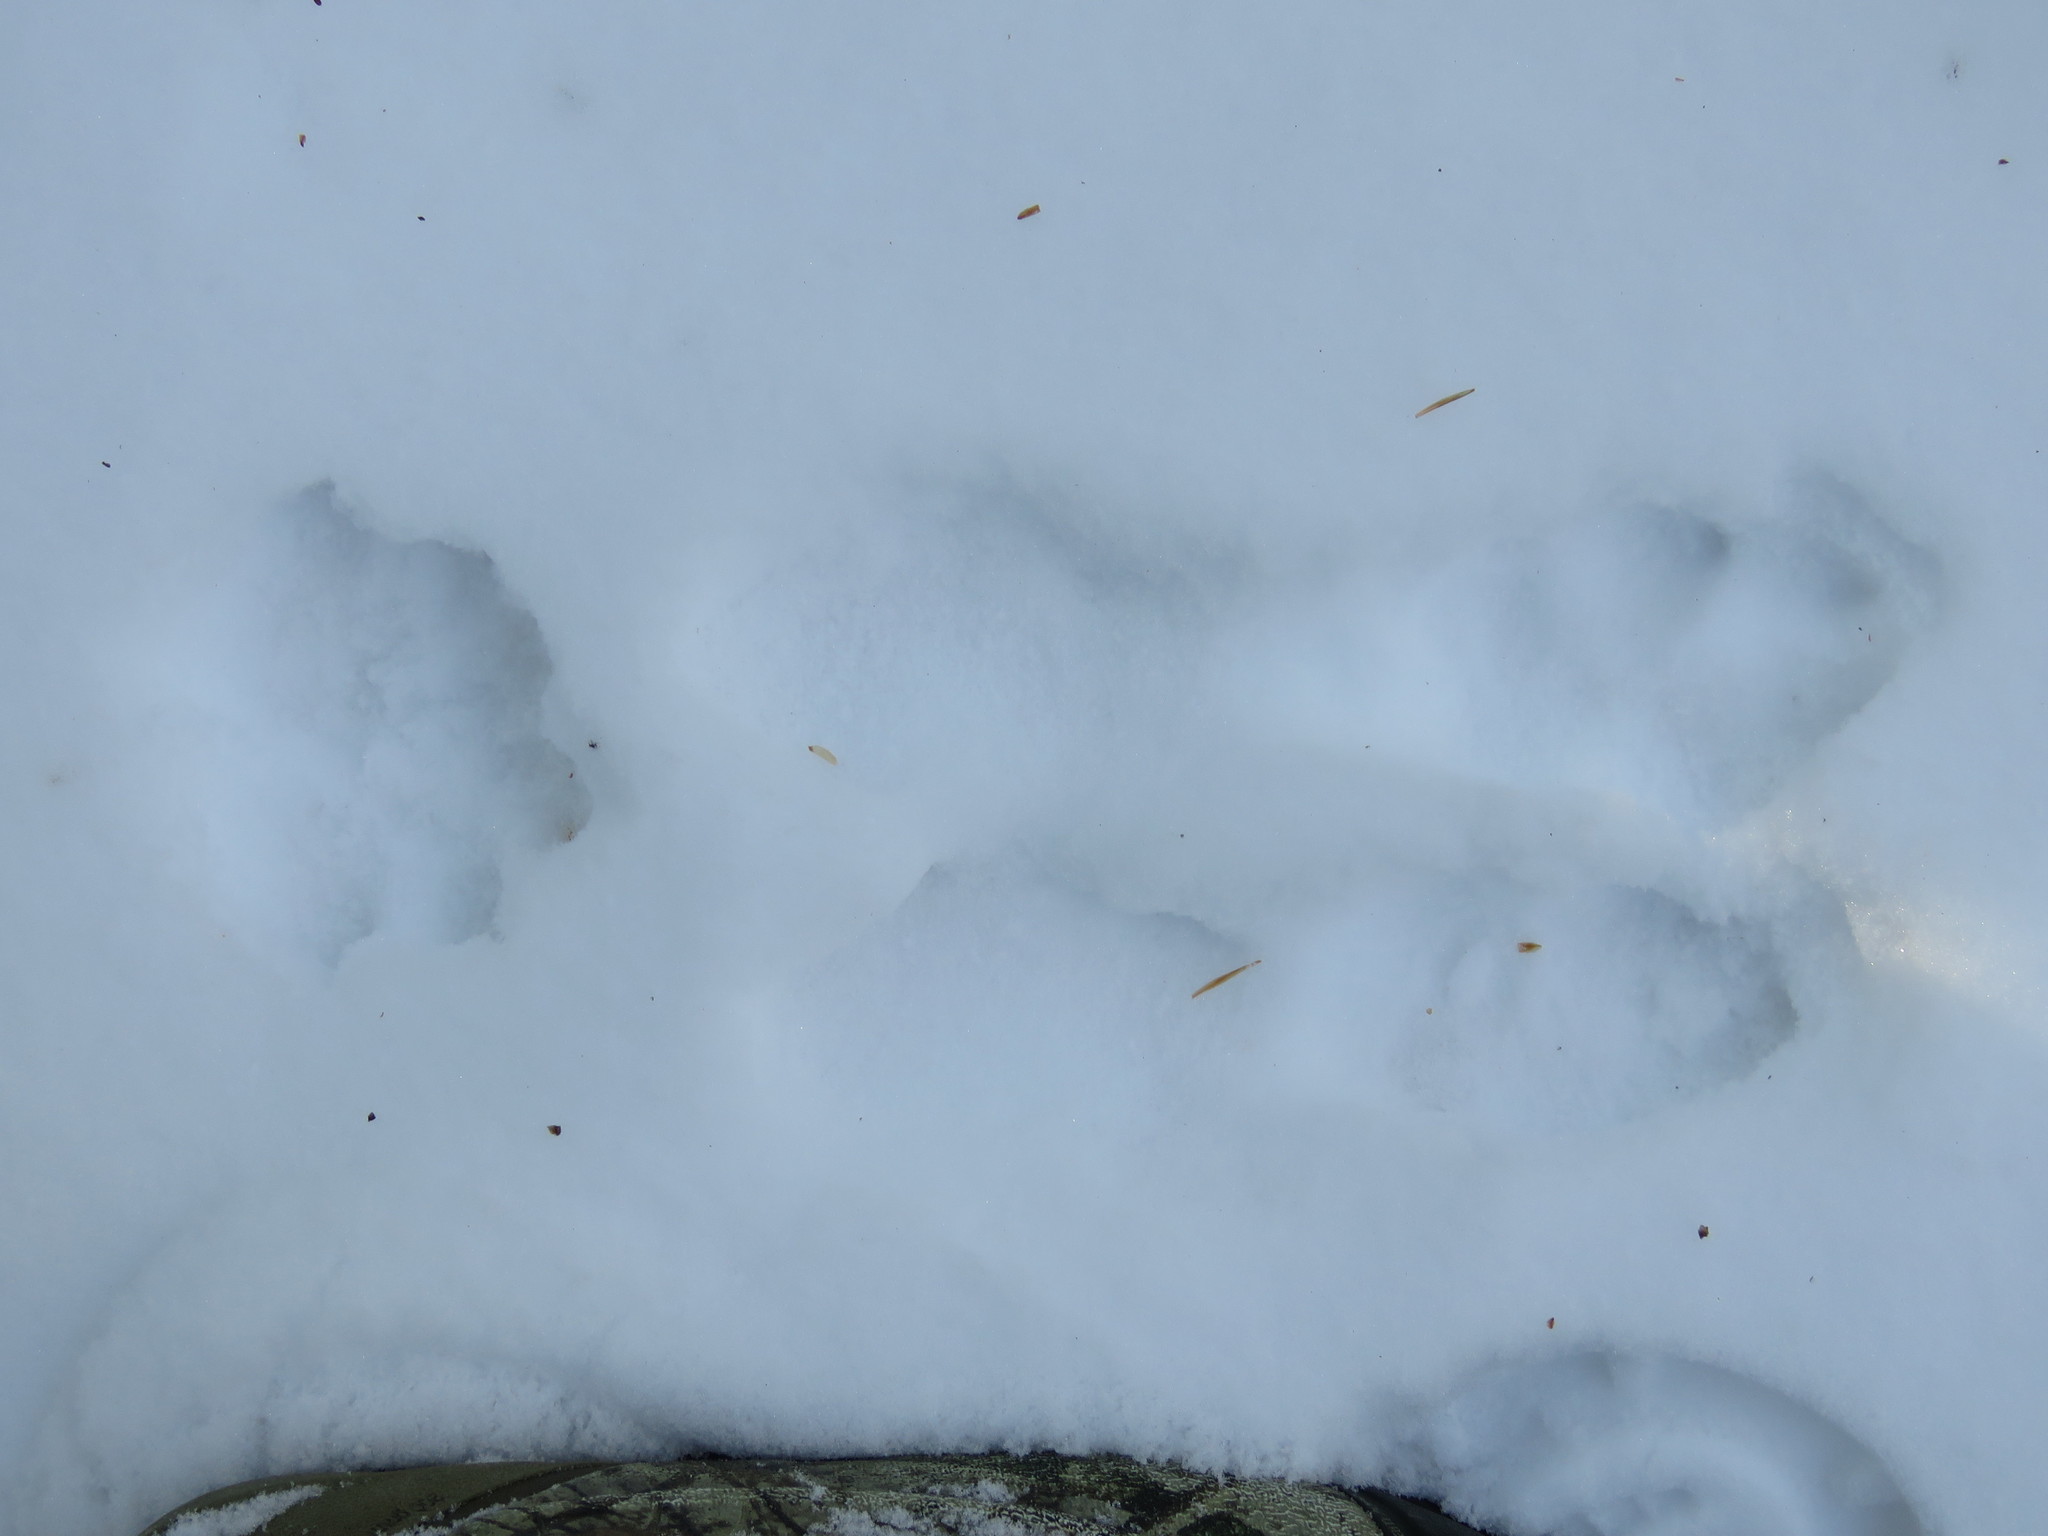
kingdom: Animalia
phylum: Chordata
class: Mammalia
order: Lagomorpha
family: Leporidae
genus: Lepus
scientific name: Lepus americanus
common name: Snowshoe hare
